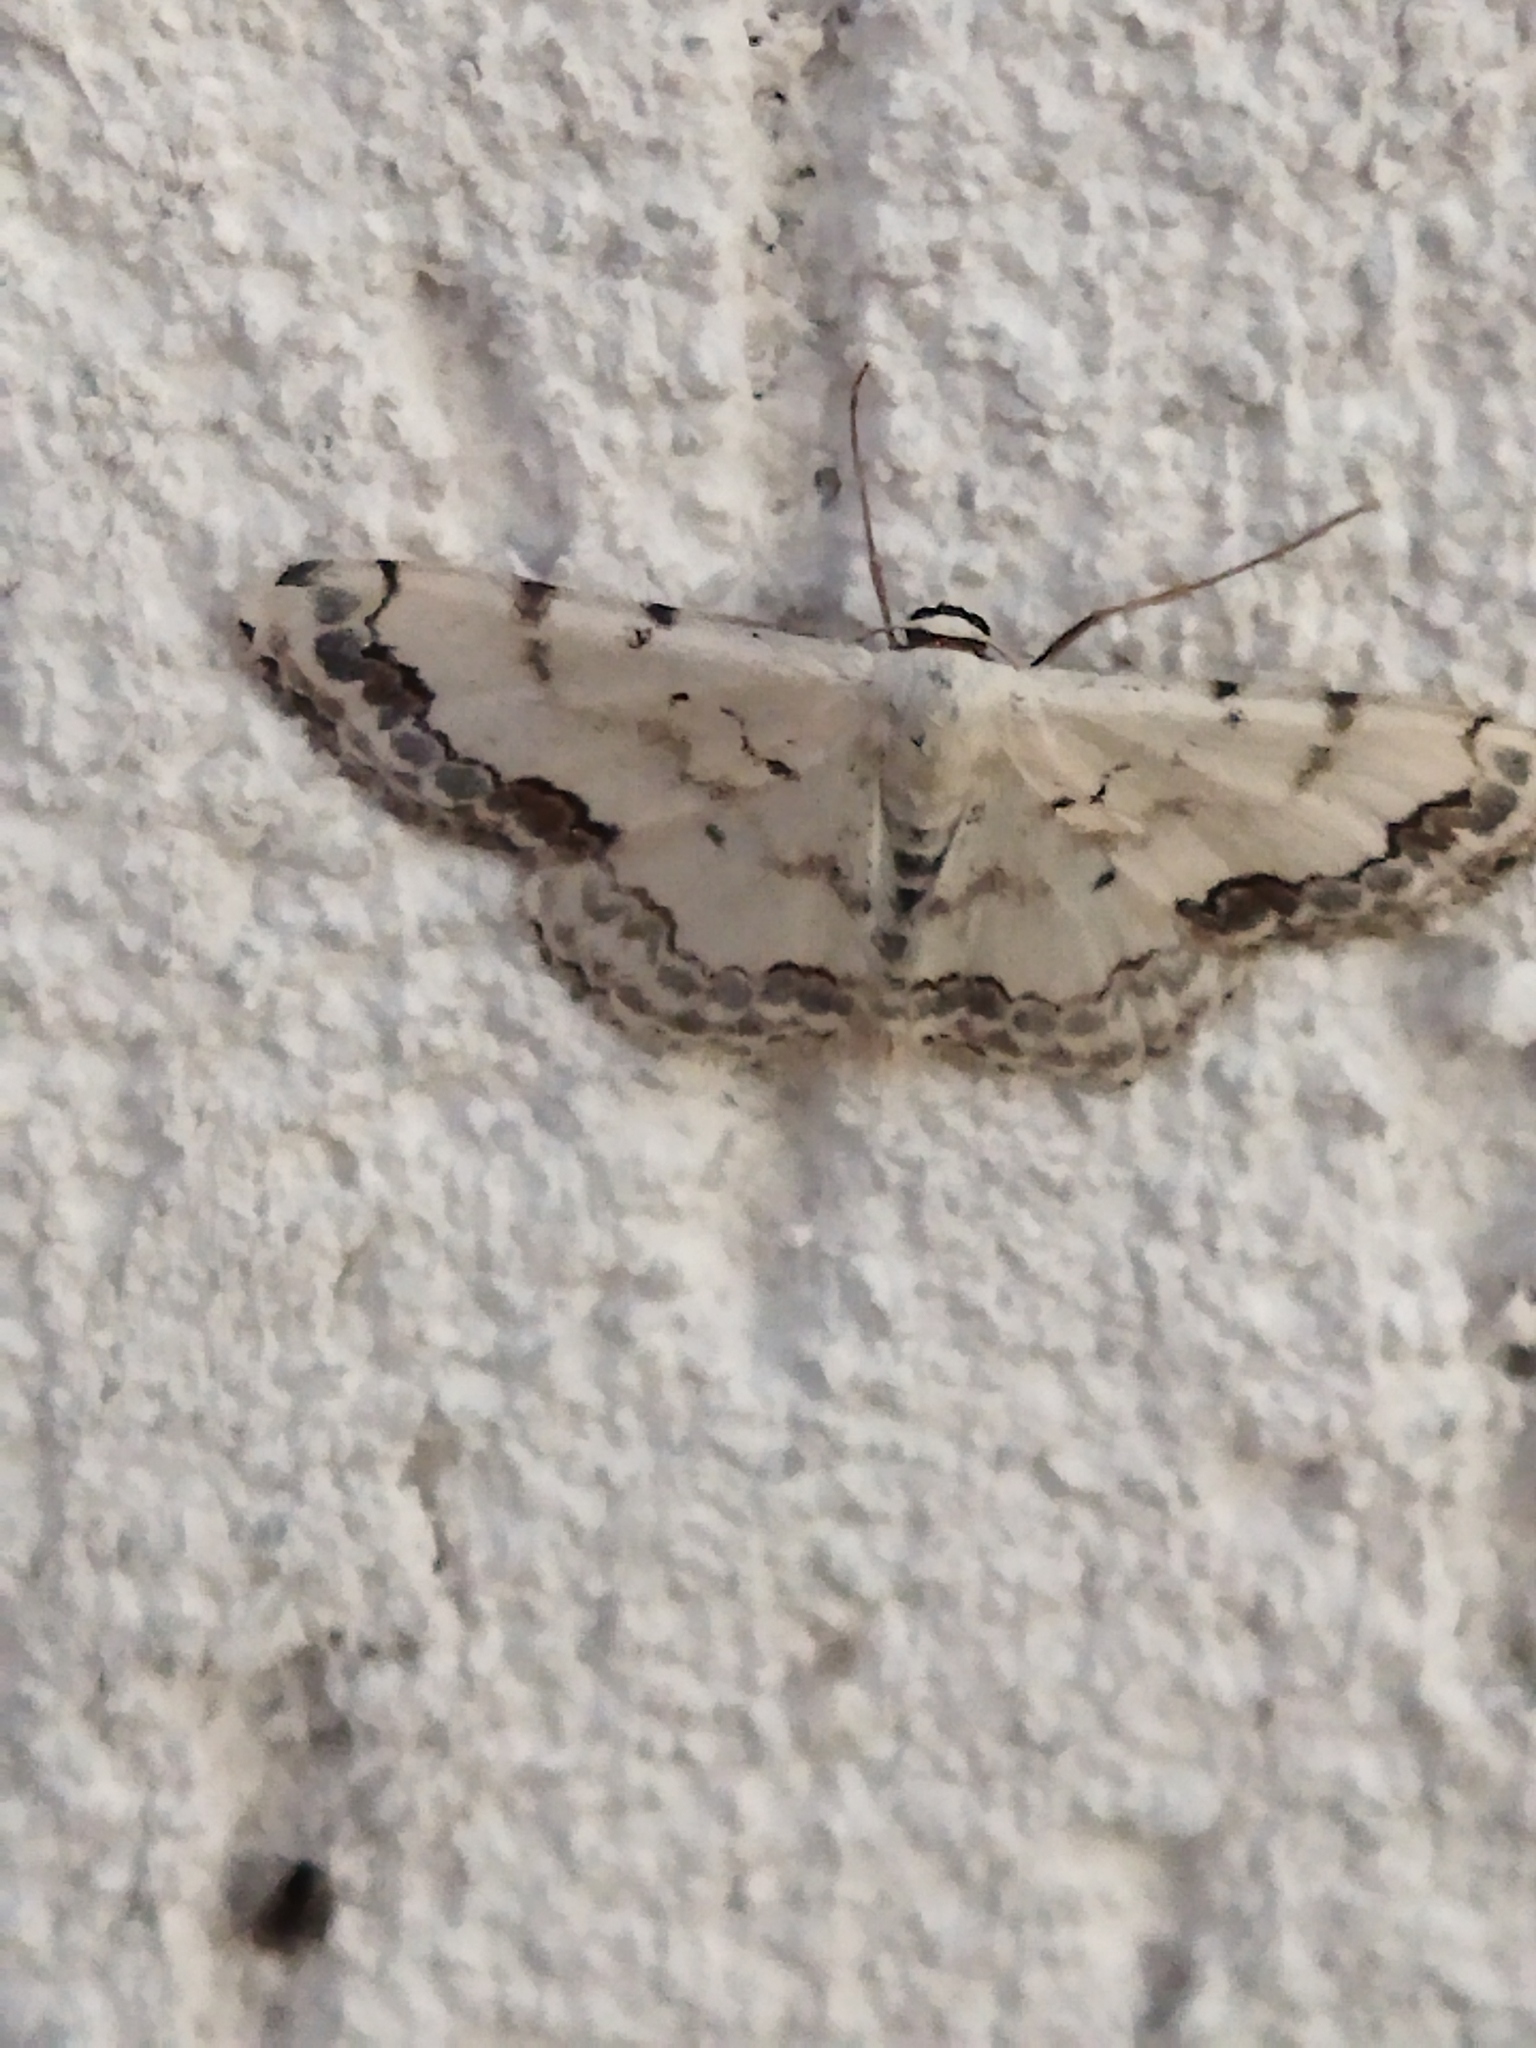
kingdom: Animalia
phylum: Arthropoda
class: Insecta
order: Lepidoptera
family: Geometridae
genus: Scopula
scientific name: Scopula decorata
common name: Middle lace border
